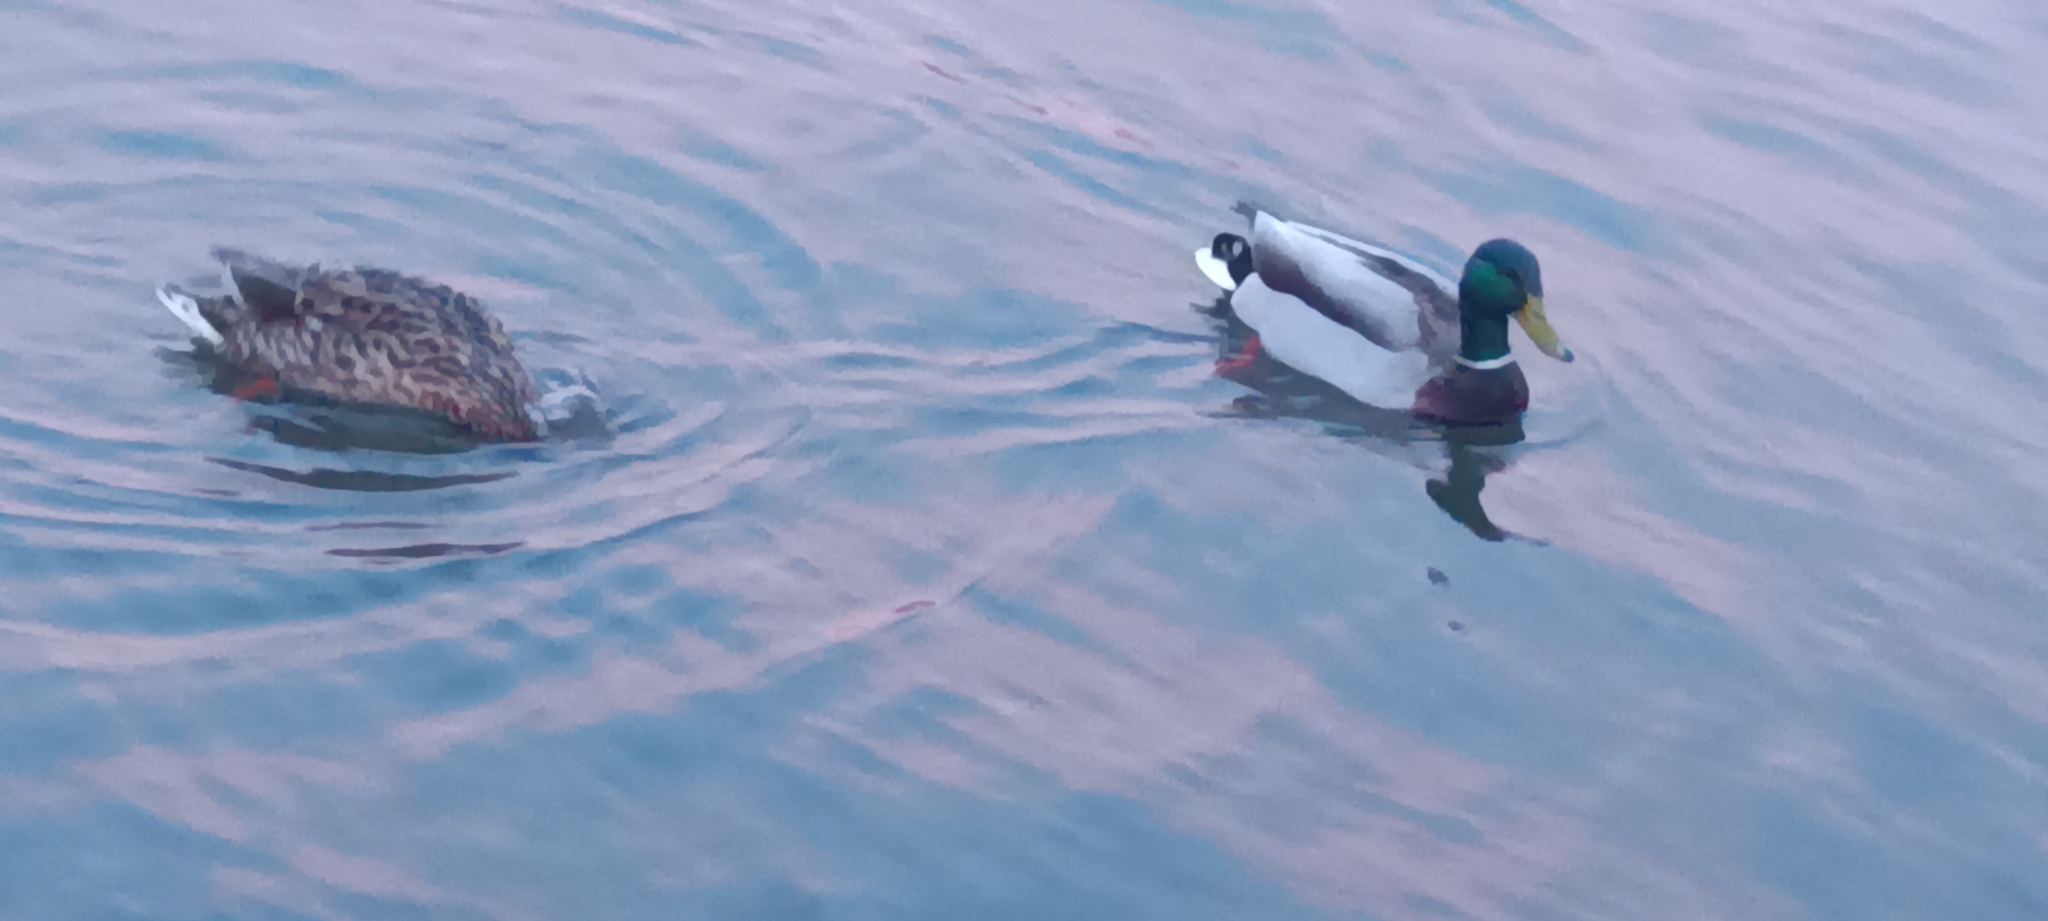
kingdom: Animalia
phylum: Chordata
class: Aves
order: Anseriformes
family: Anatidae
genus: Anas
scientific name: Anas platyrhynchos
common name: Mallard
